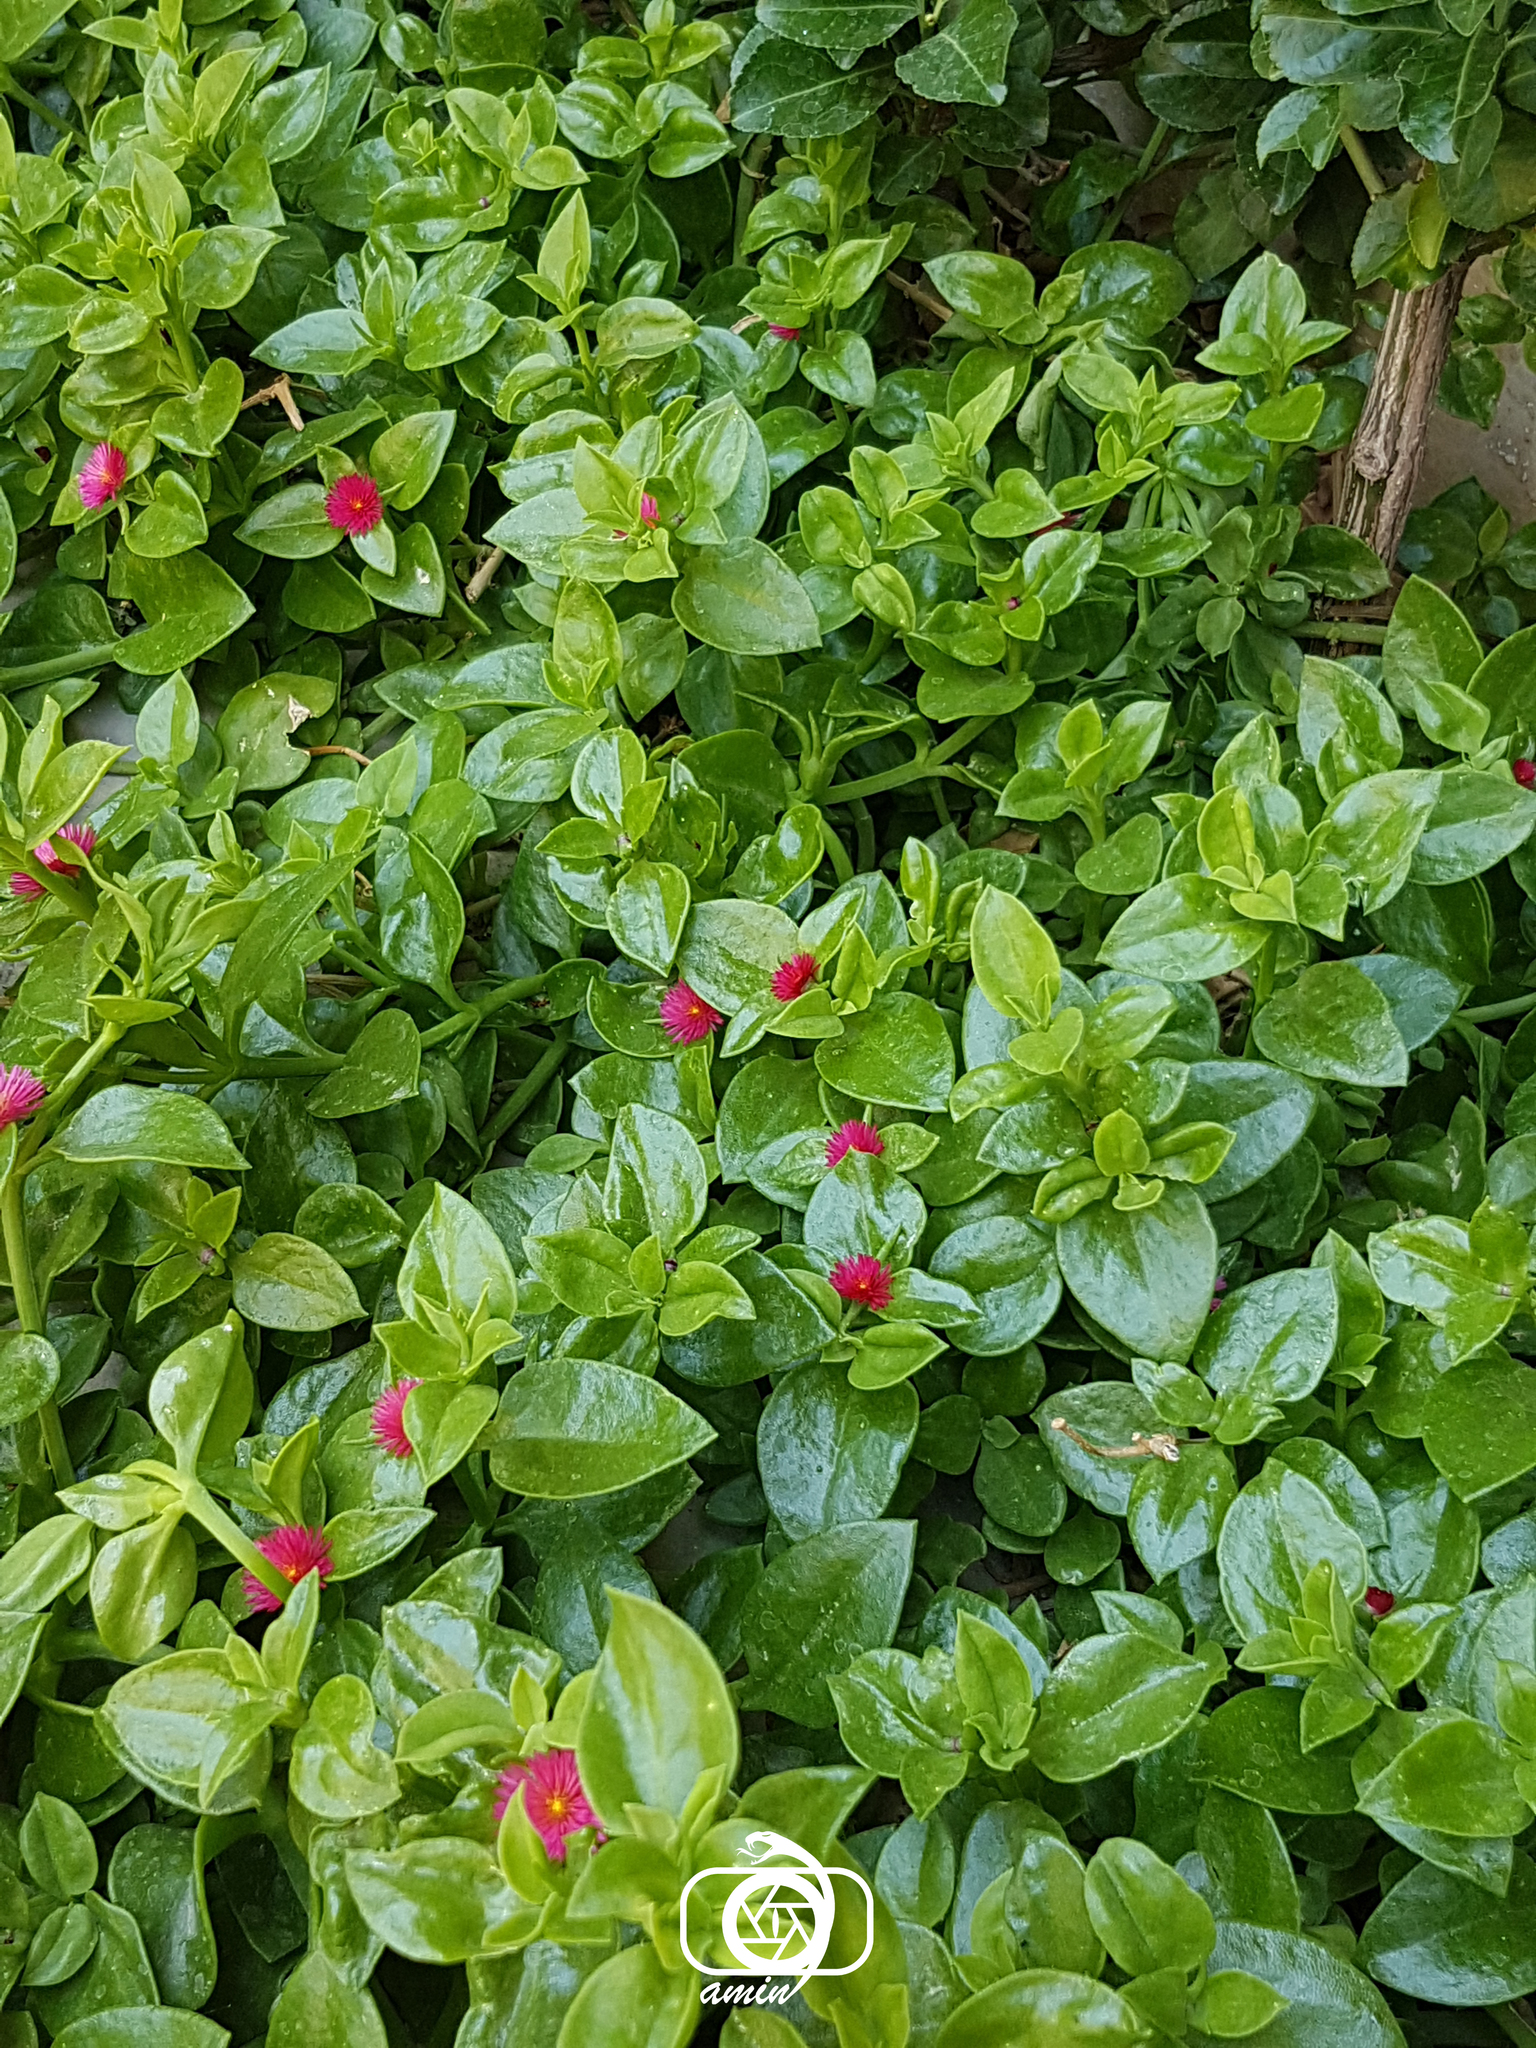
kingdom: Plantae
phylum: Tracheophyta
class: Magnoliopsida
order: Caryophyllales
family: Aizoaceae
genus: Mesembryanthemum
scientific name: Mesembryanthemum cordifolium
